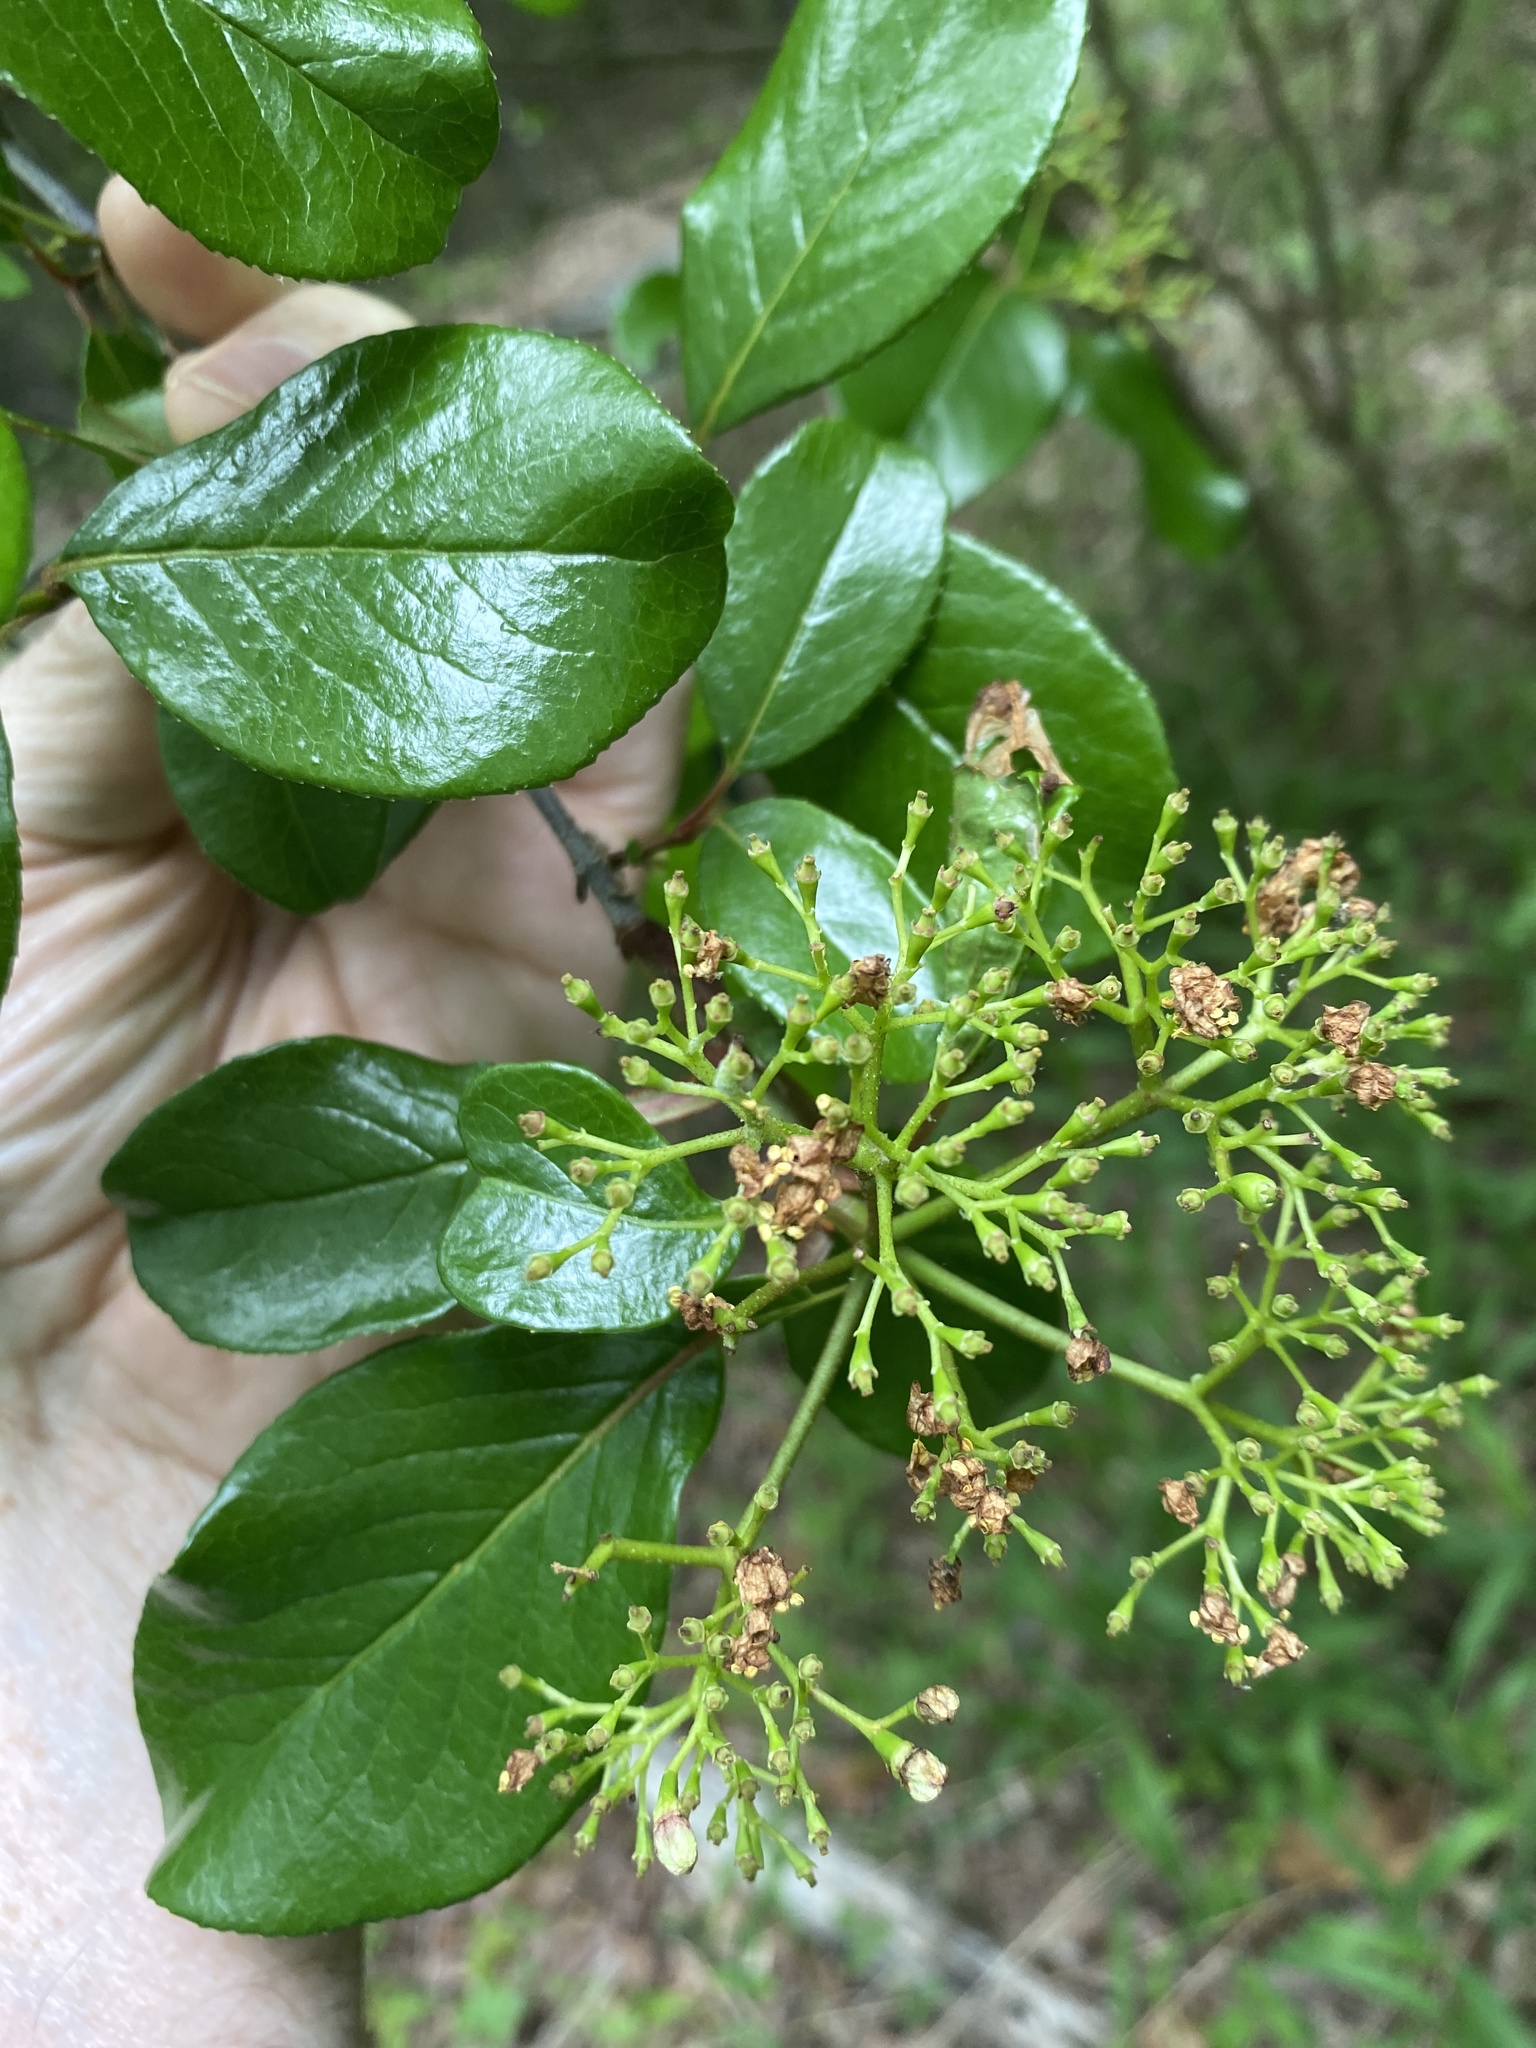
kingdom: Plantae
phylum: Tracheophyta
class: Magnoliopsida
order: Dipsacales
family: Viburnaceae
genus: Viburnum
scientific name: Viburnum rufidulum
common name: Blue haw
